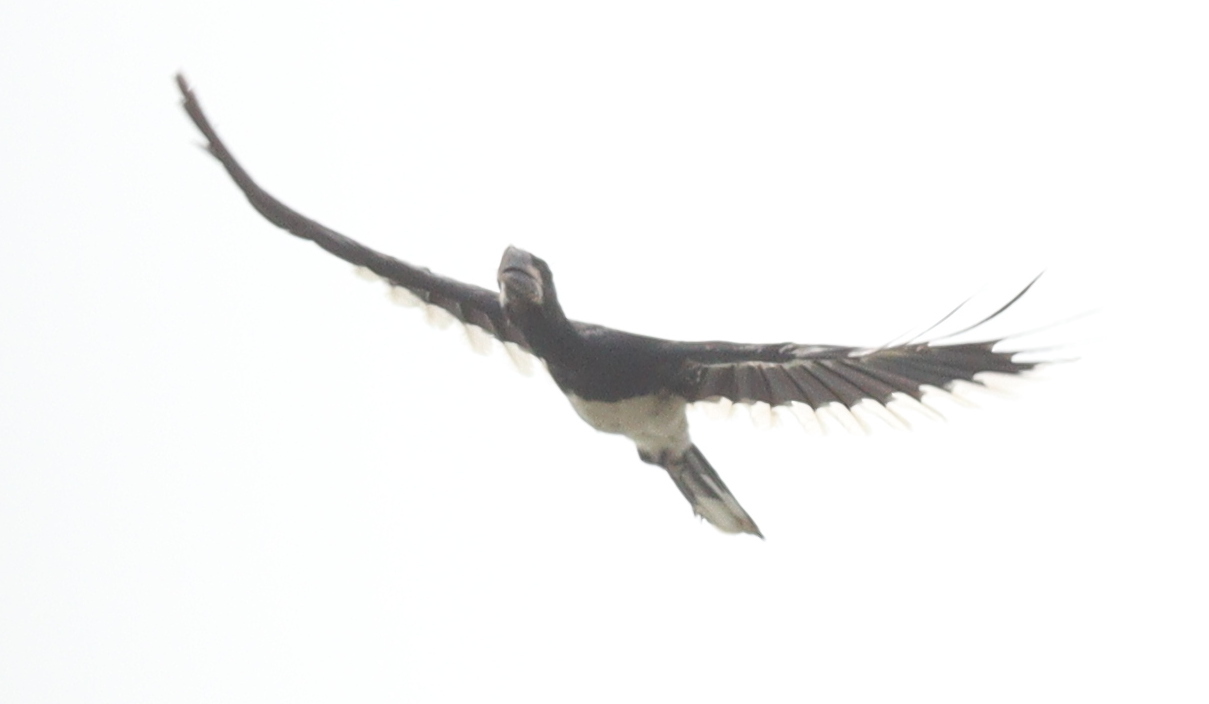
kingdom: Animalia
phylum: Chordata
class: Aves
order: Bucerotiformes
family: Bucerotidae
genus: Bycanistes
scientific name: Bycanistes fistulator
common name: Piping hornbill
